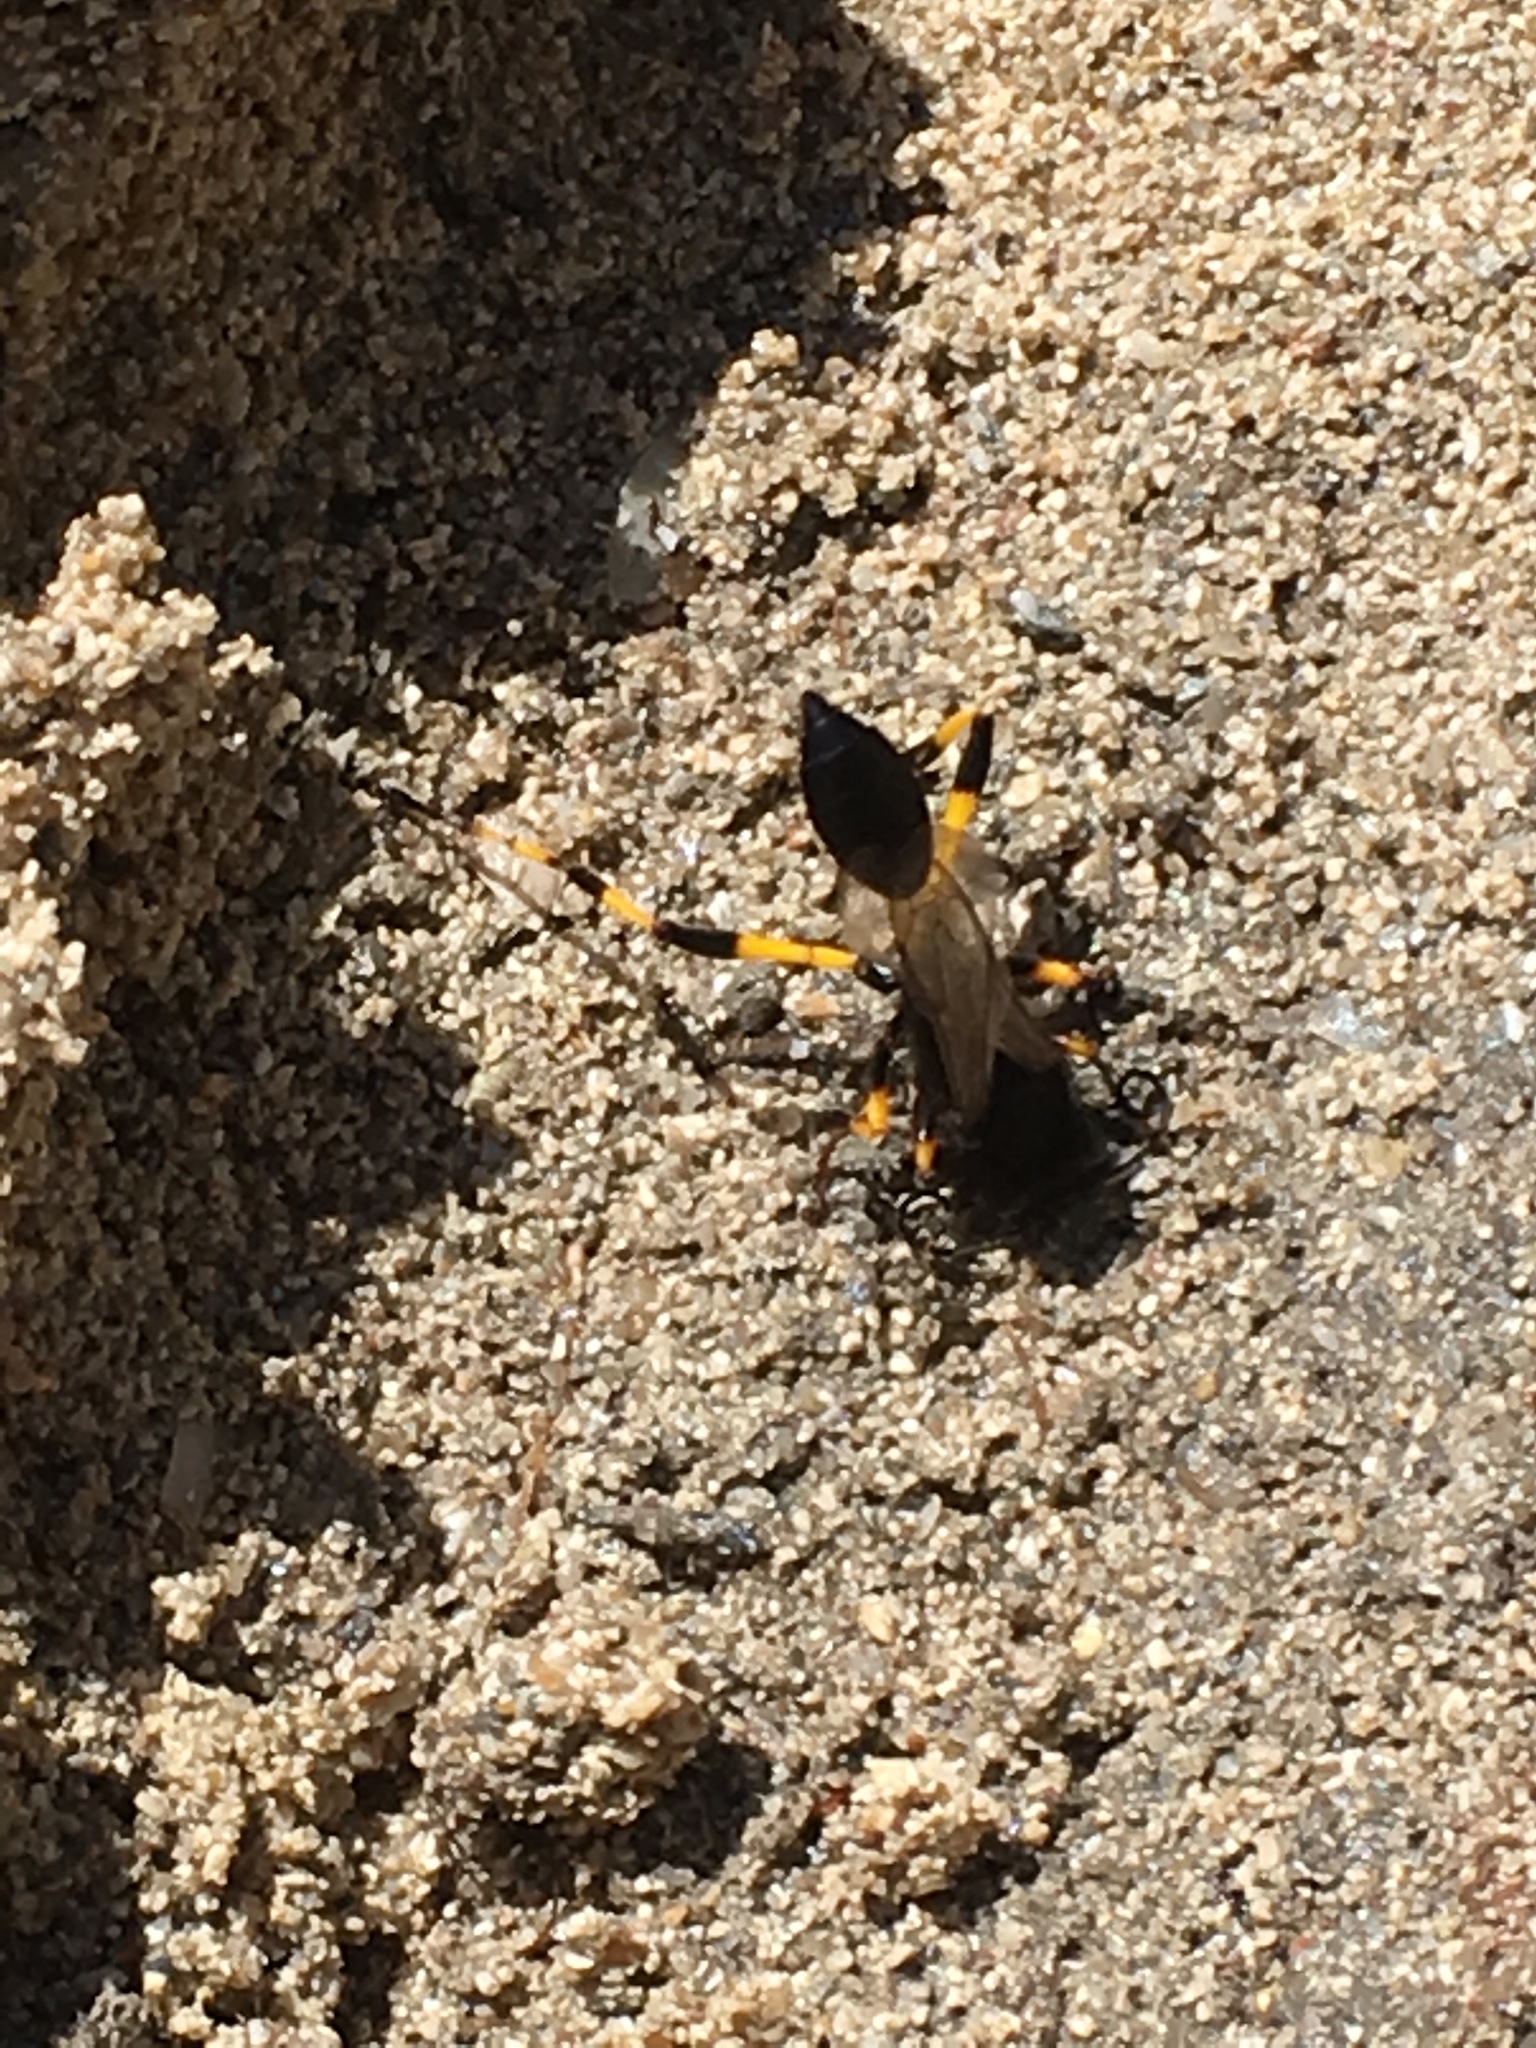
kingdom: Animalia
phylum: Arthropoda
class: Insecta
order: Hymenoptera
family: Sphecidae
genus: Sceliphron
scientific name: Sceliphron spirifex
